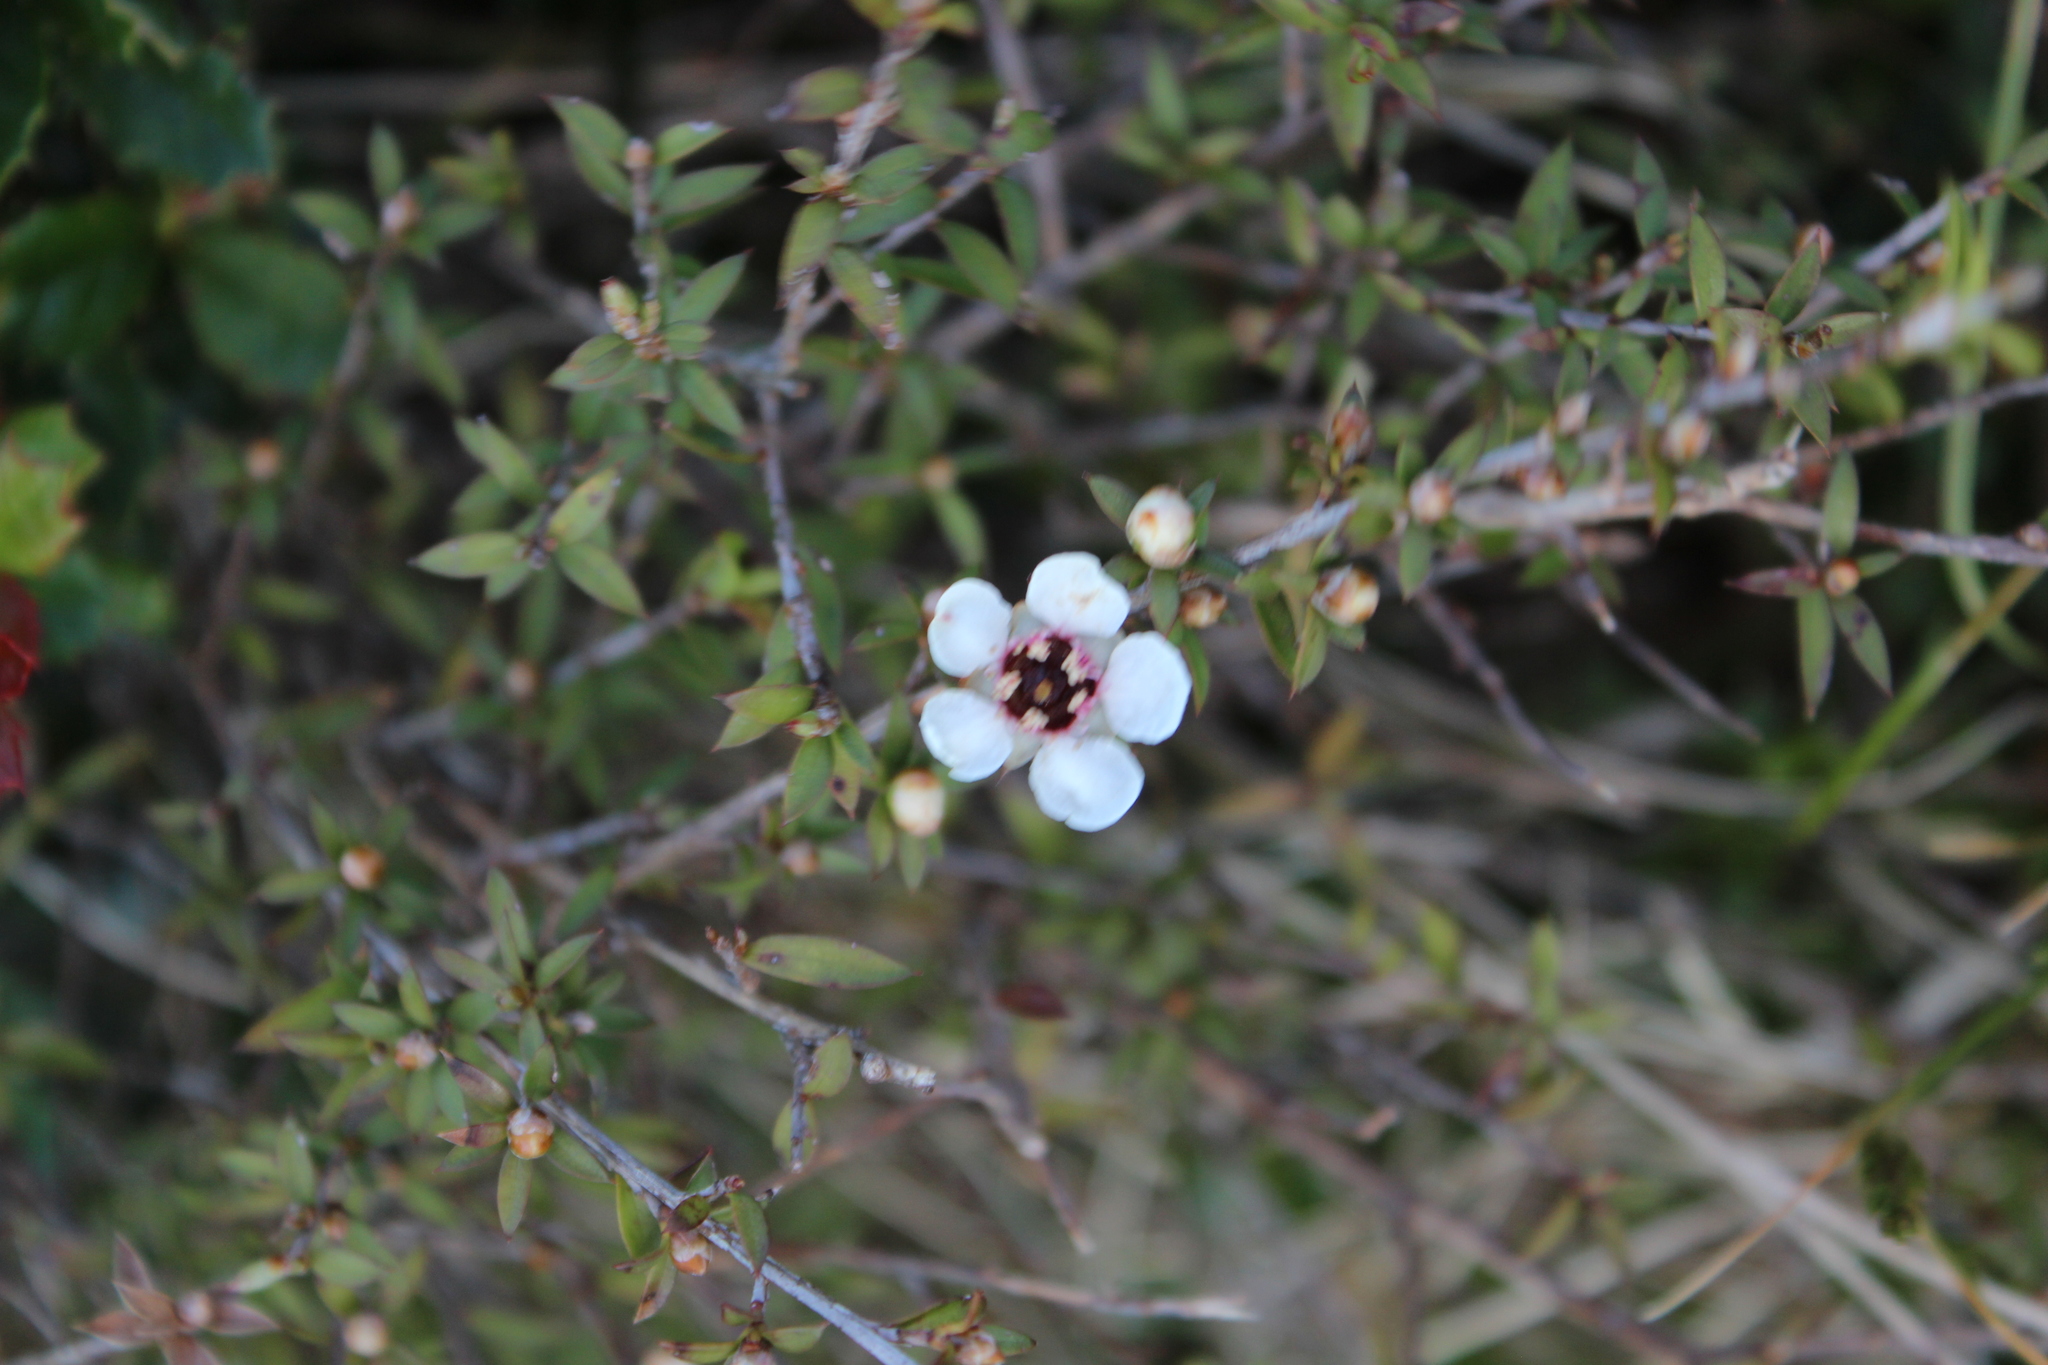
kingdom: Plantae
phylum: Tracheophyta
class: Magnoliopsida
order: Myrtales
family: Myrtaceae
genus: Leptospermum
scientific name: Leptospermum scoparium
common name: Broom tea-tree
